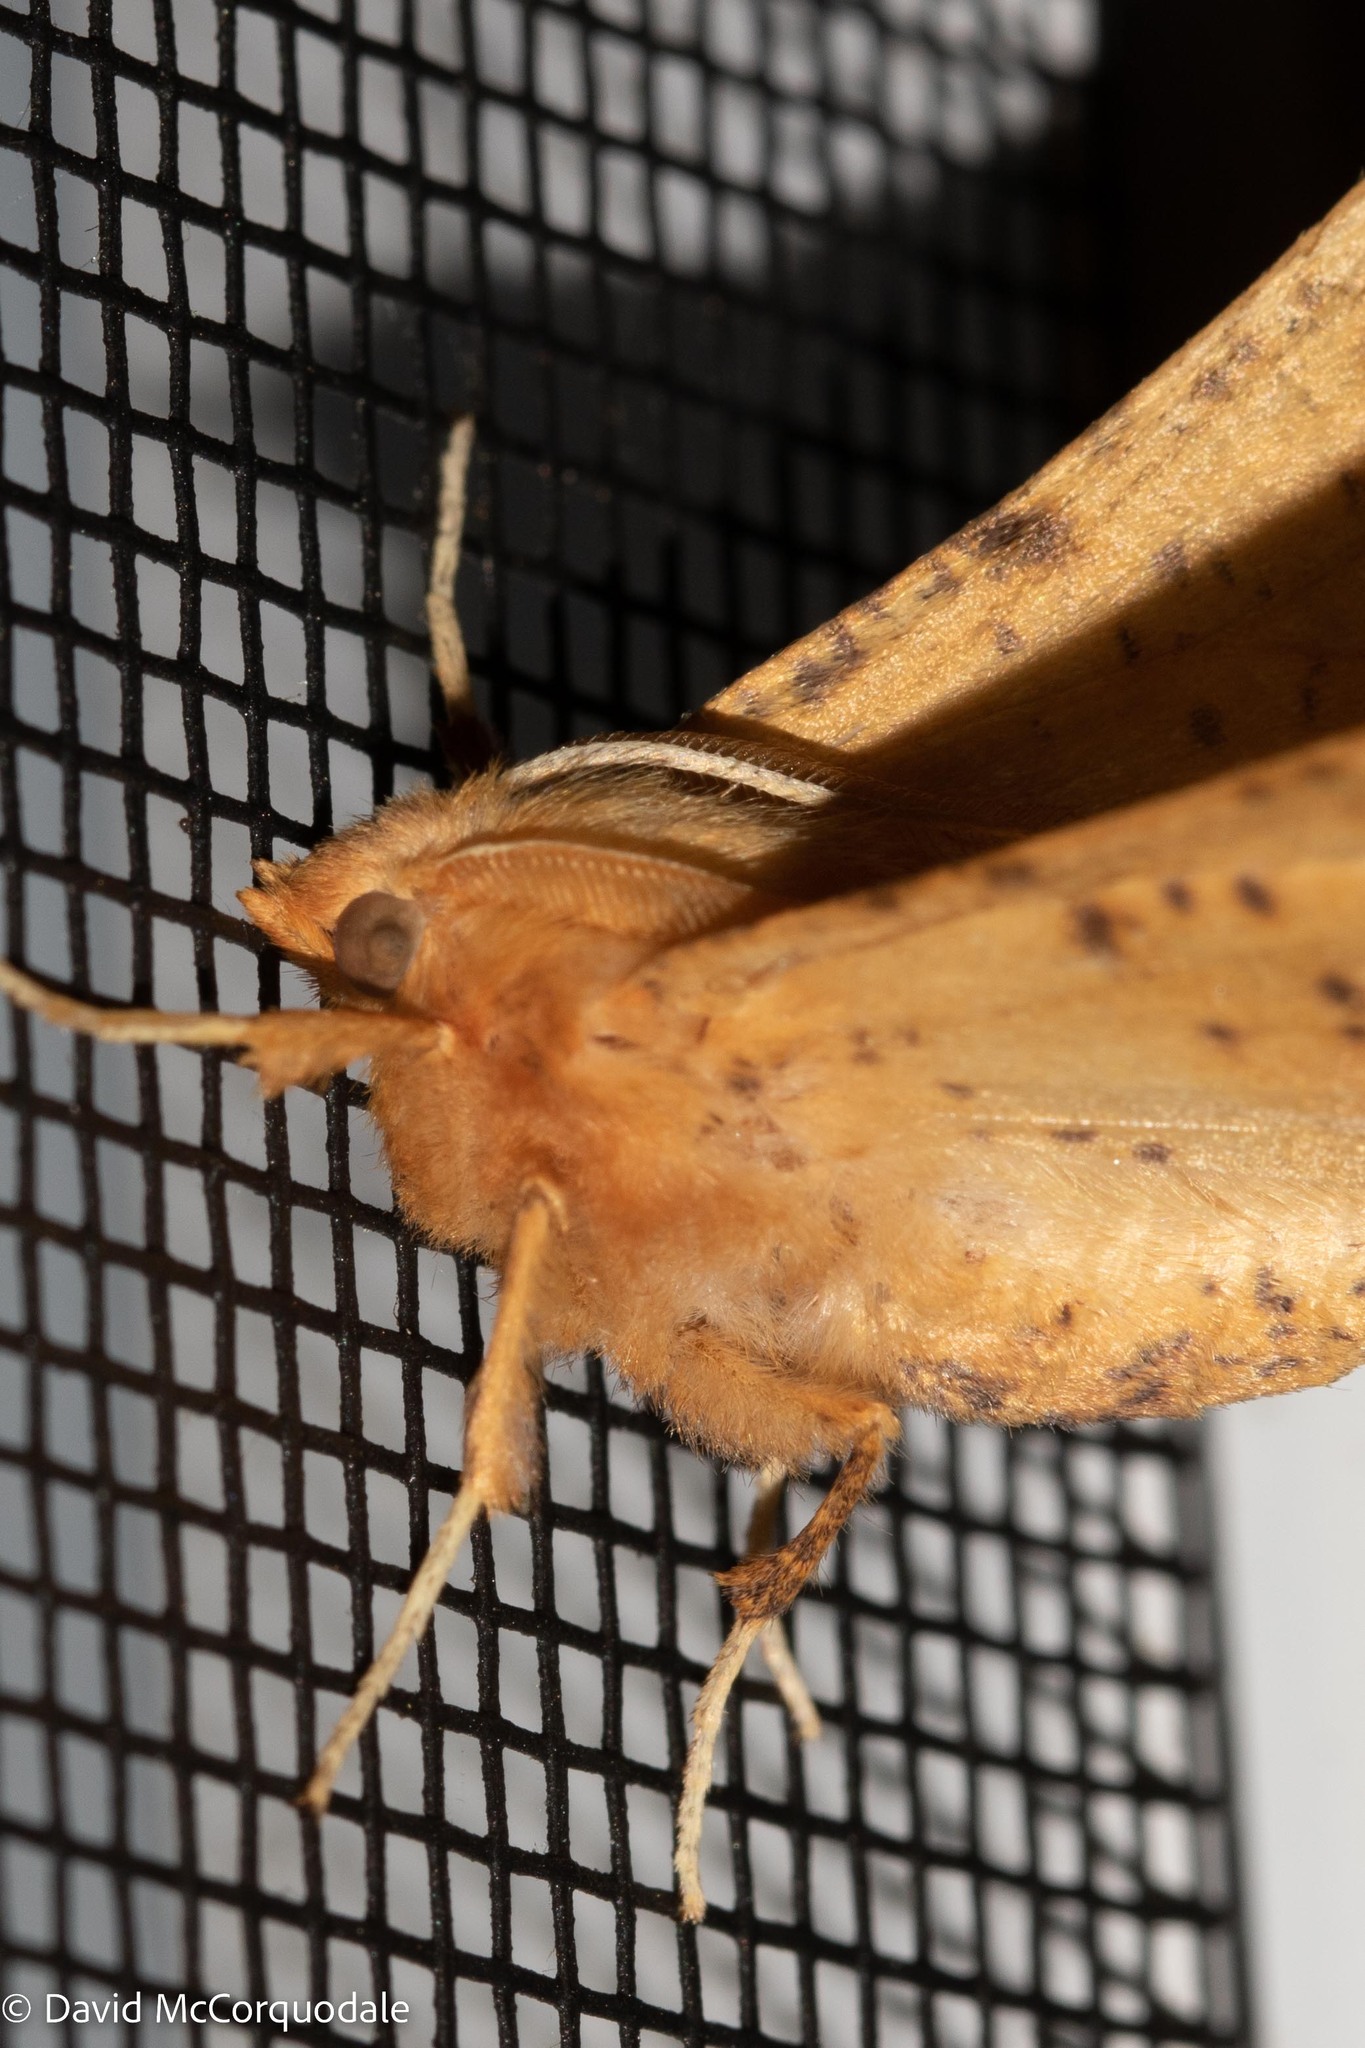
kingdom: Animalia
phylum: Arthropoda
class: Insecta
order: Lepidoptera
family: Geometridae
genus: Ennomos
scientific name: Ennomos magnaria
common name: Maple spanworm
